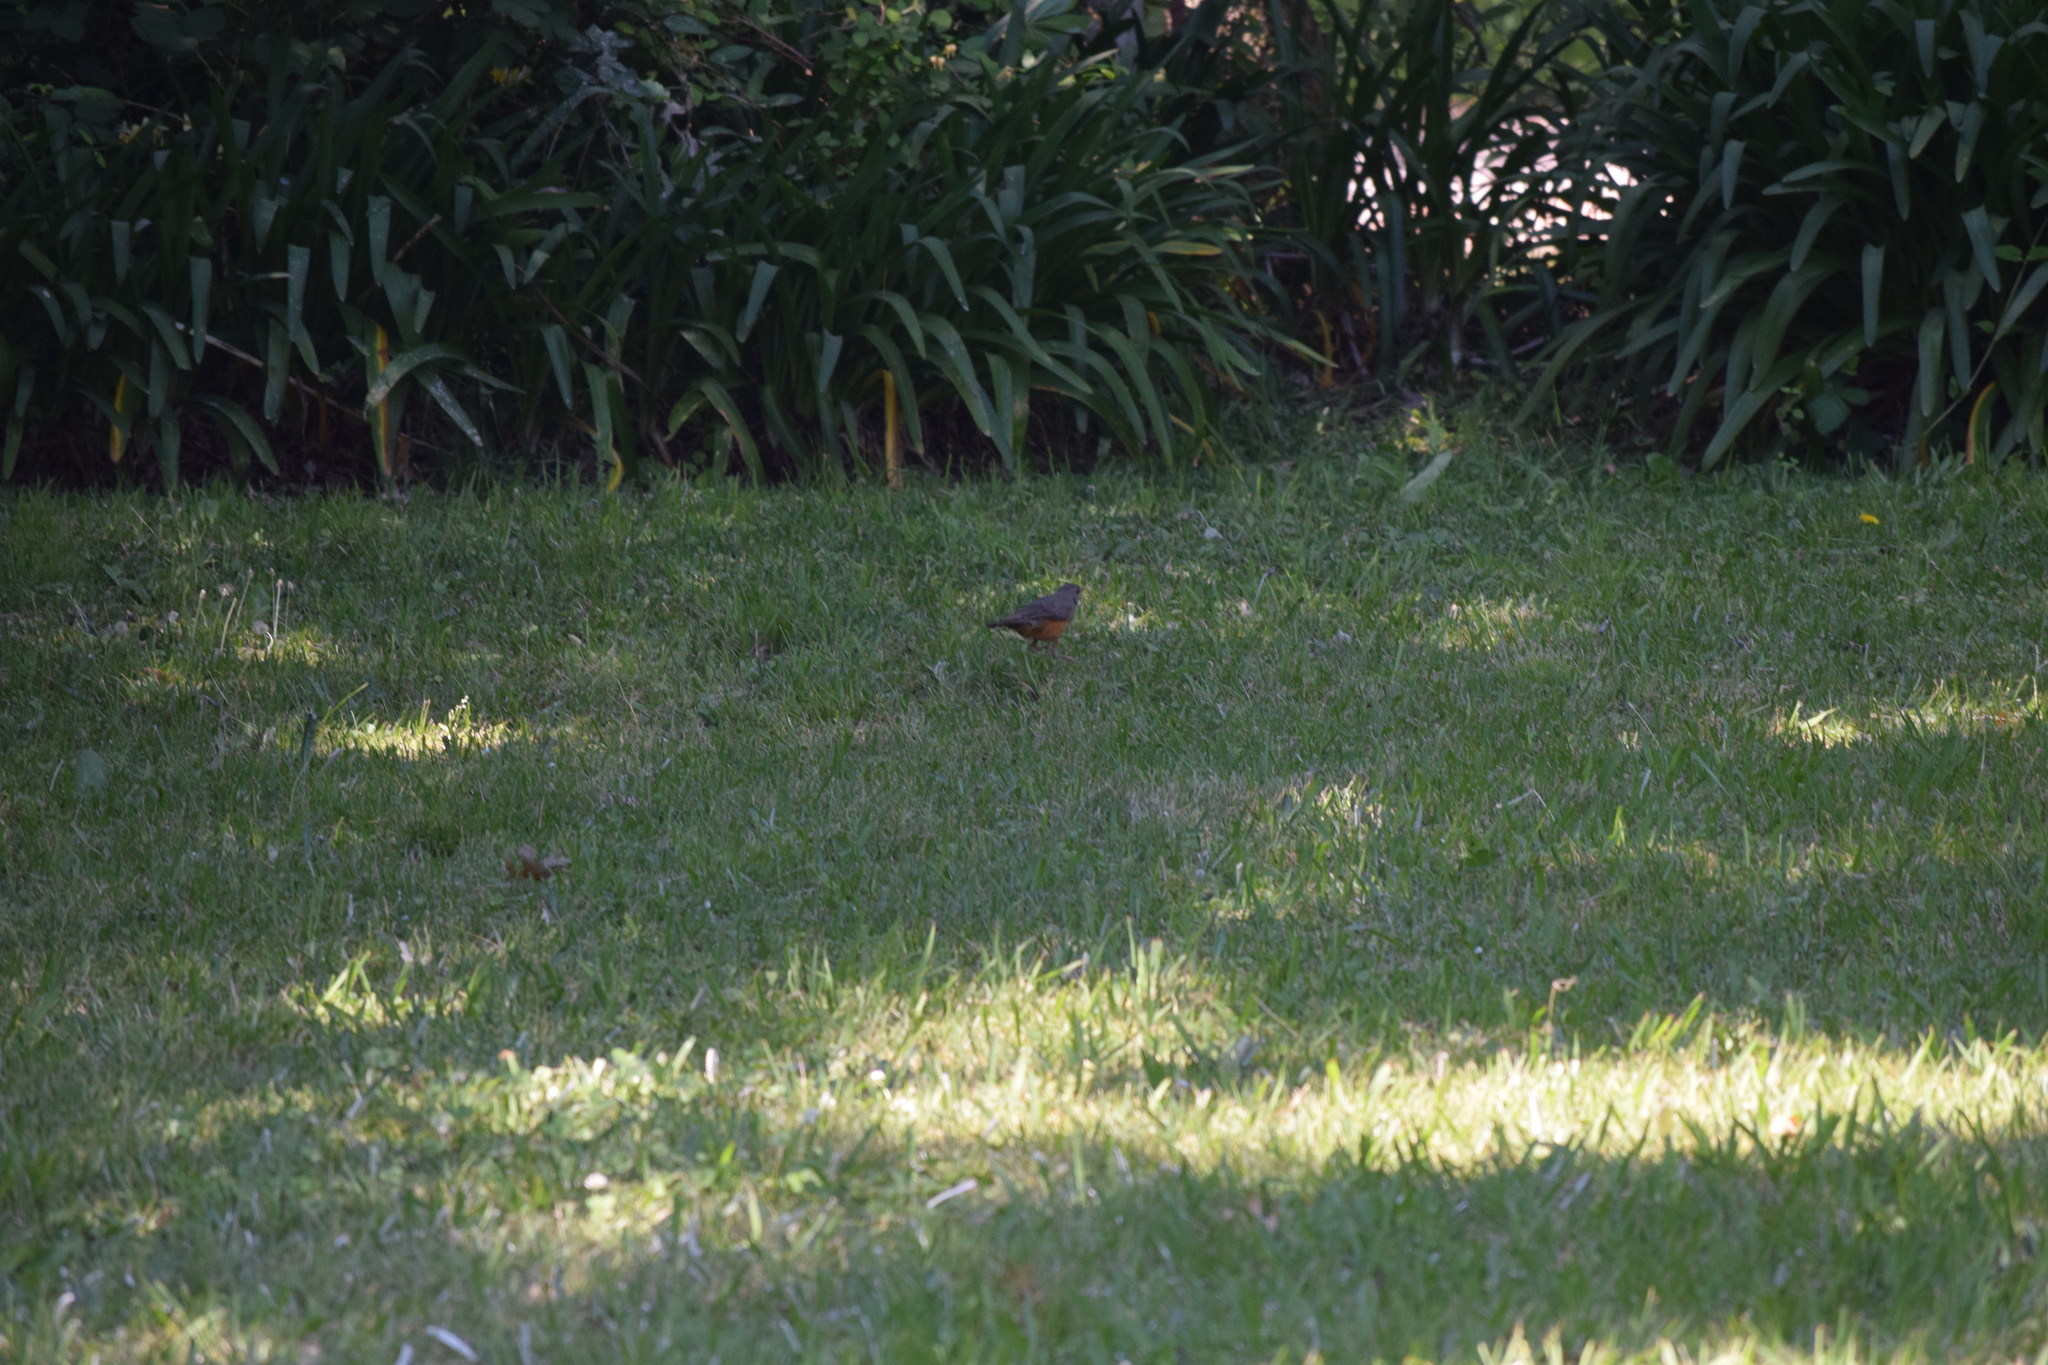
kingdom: Animalia
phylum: Chordata
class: Aves
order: Passeriformes
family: Turdidae
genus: Turdus
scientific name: Turdus rufiventris
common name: Rufous-bellied thrush
